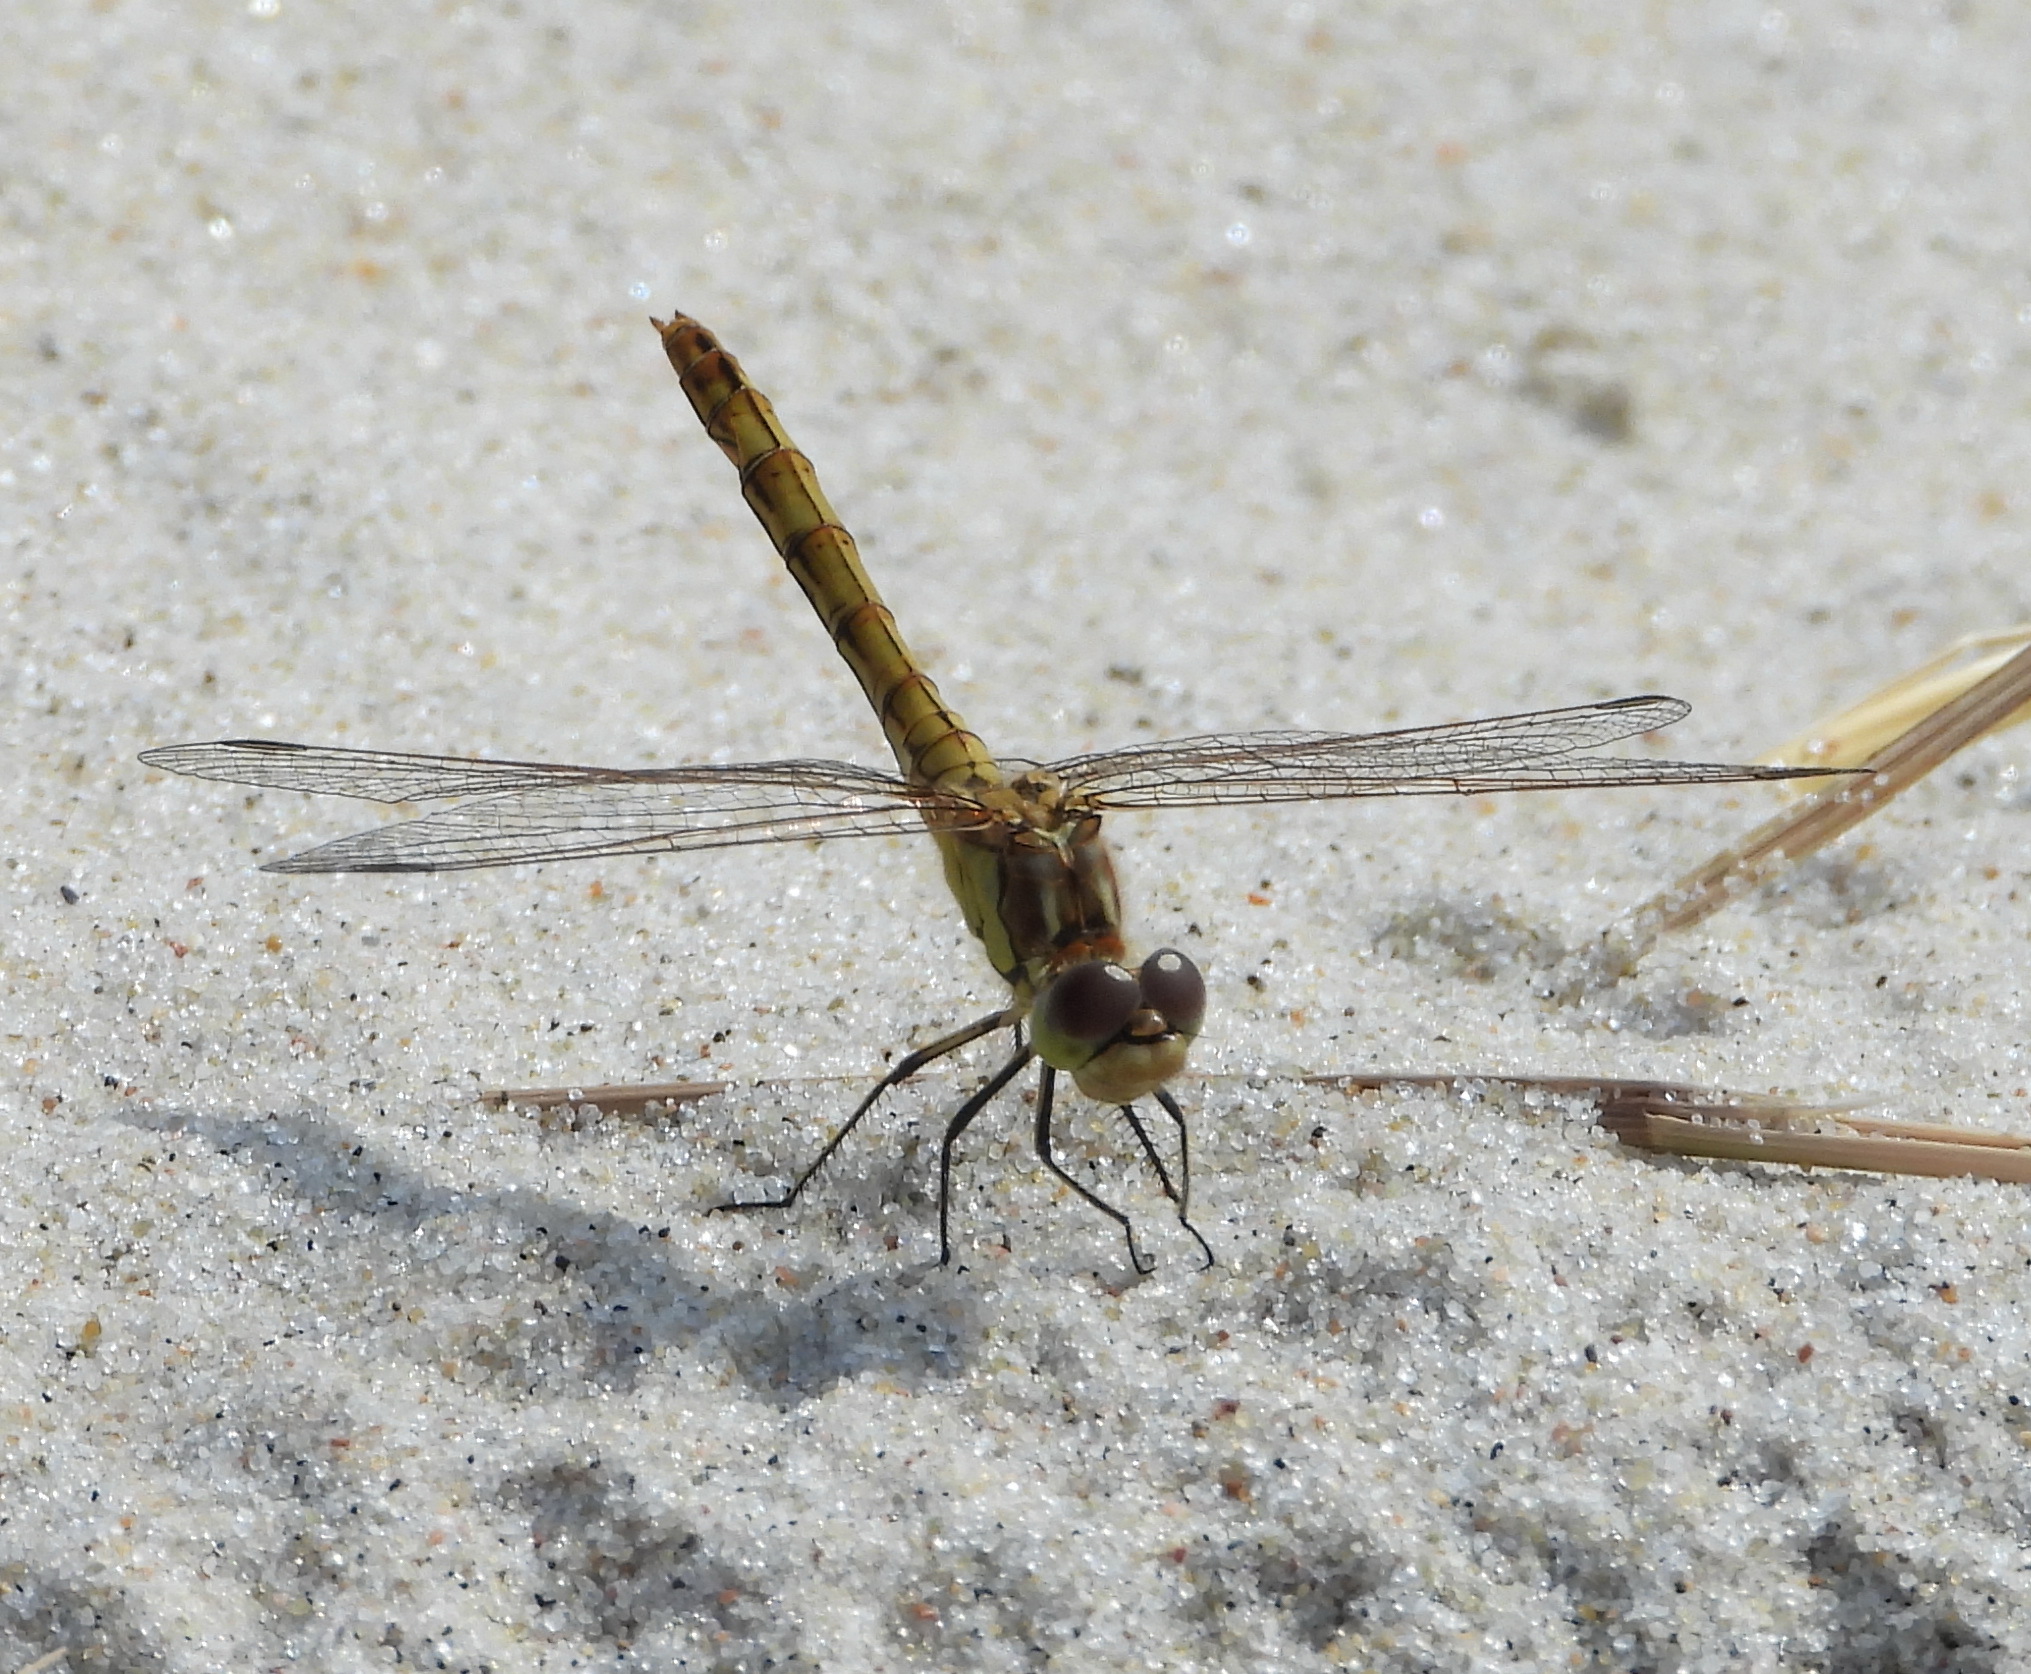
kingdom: Animalia
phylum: Arthropoda
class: Insecta
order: Odonata
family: Libellulidae
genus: Sympetrum
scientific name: Sympetrum vulgatum
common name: Vagrant darter
